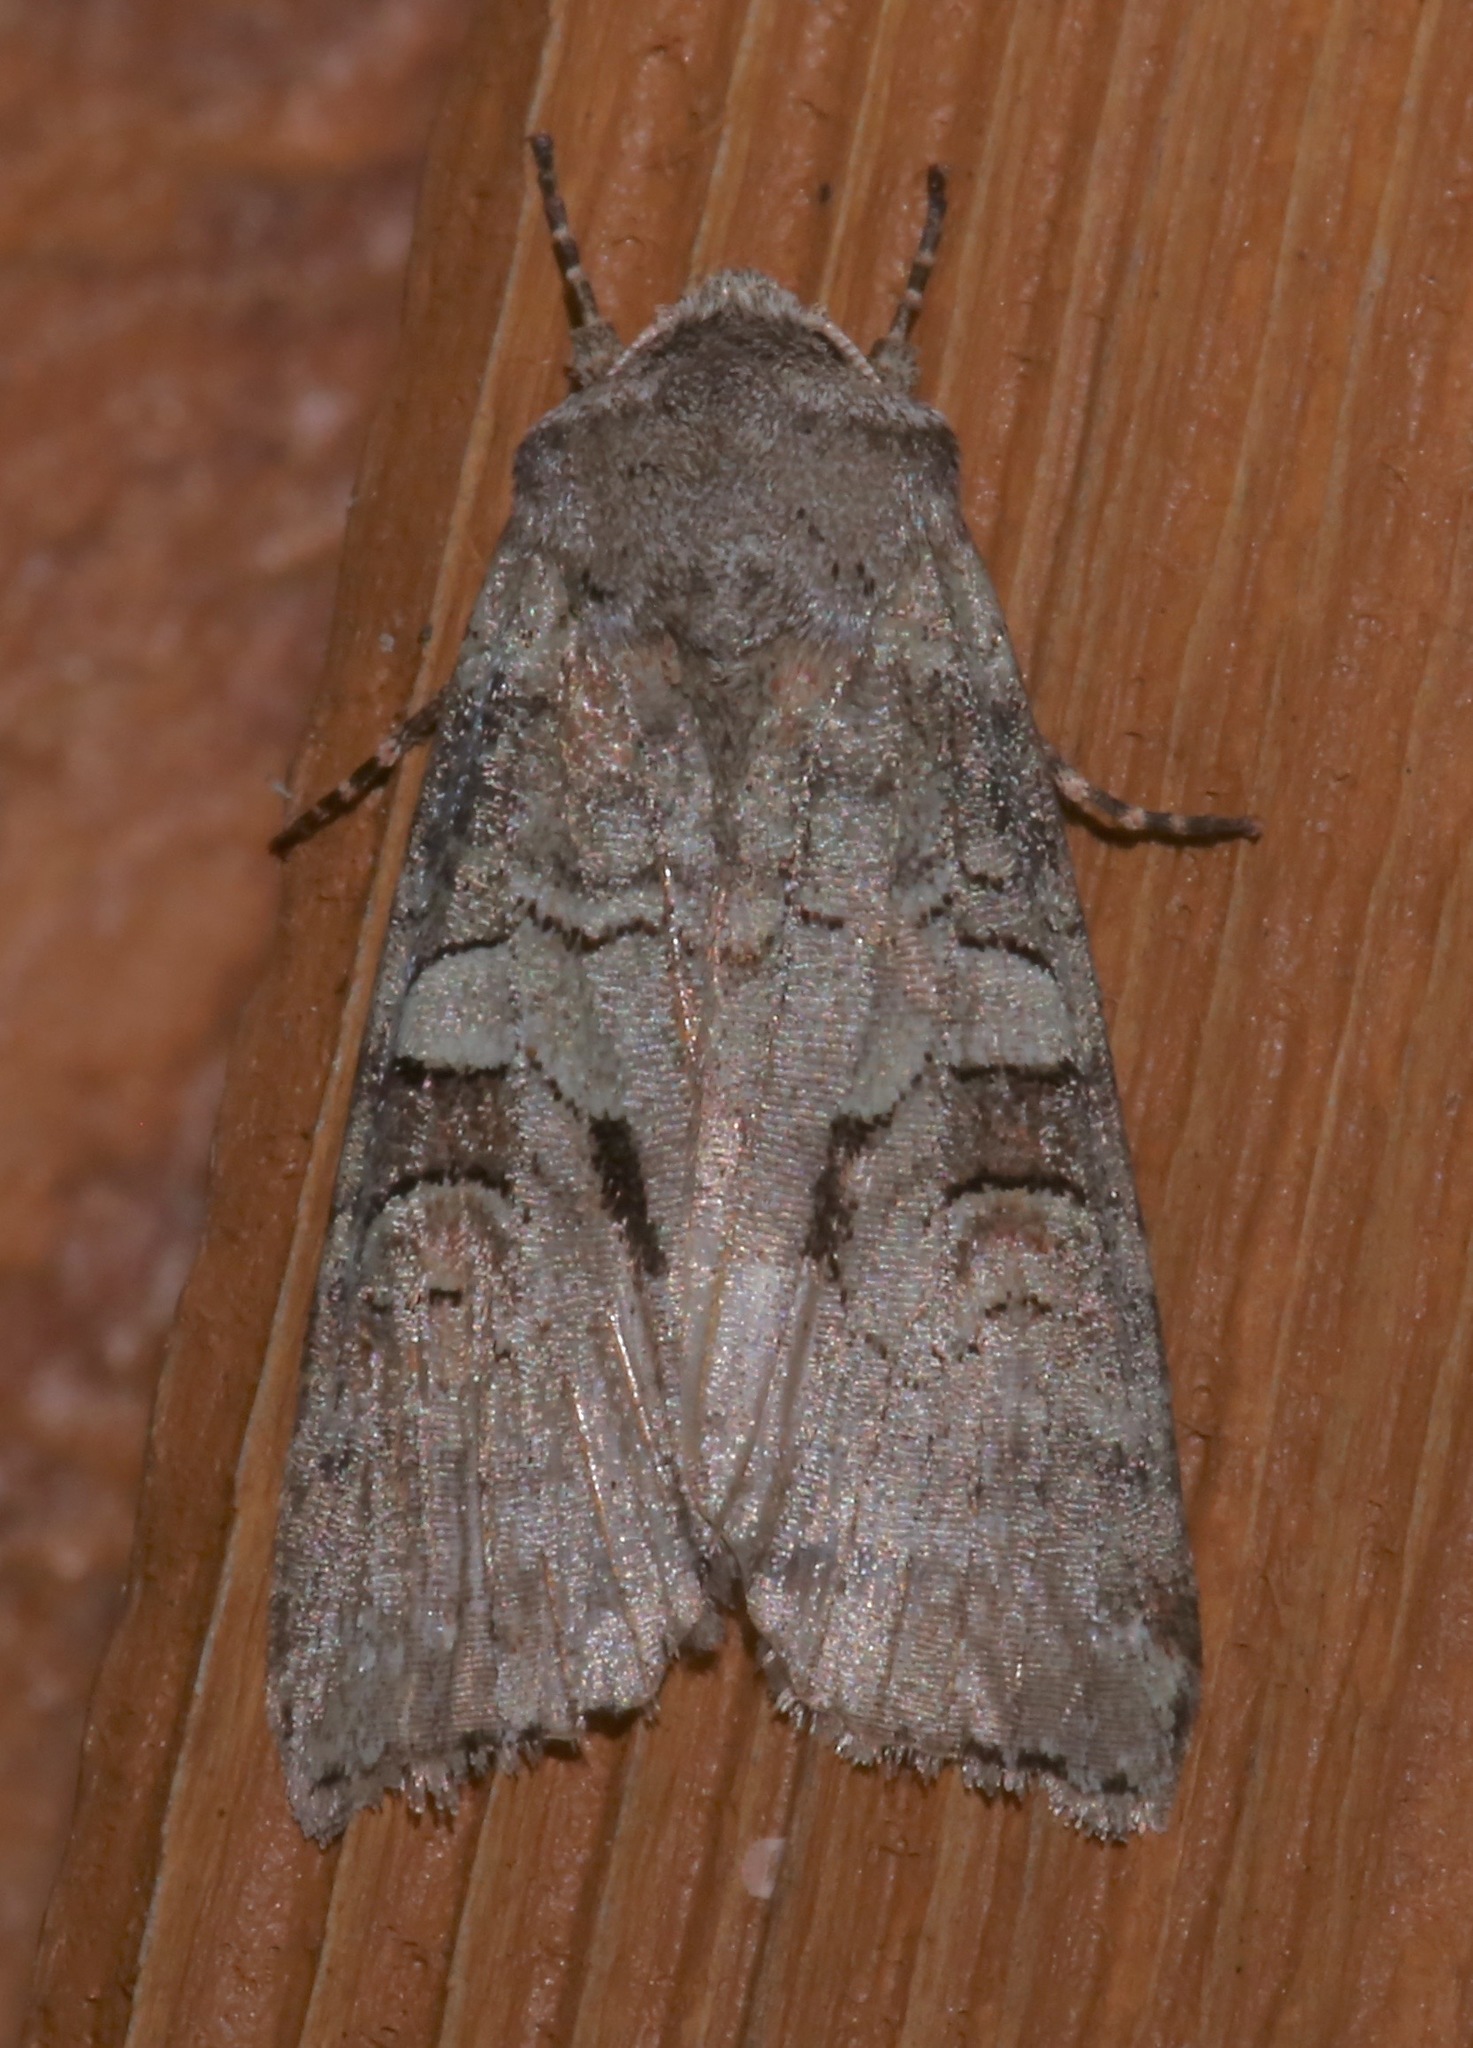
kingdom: Animalia
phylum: Arthropoda
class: Insecta
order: Lepidoptera
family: Noctuidae
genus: Egira
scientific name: Egira alternans
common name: Alternate woodling
